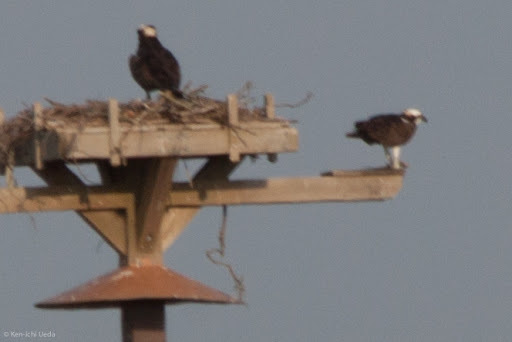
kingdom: Animalia
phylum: Chordata
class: Aves
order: Accipitriformes
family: Pandionidae
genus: Pandion
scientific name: Pandion haliaetus
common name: Osprey
